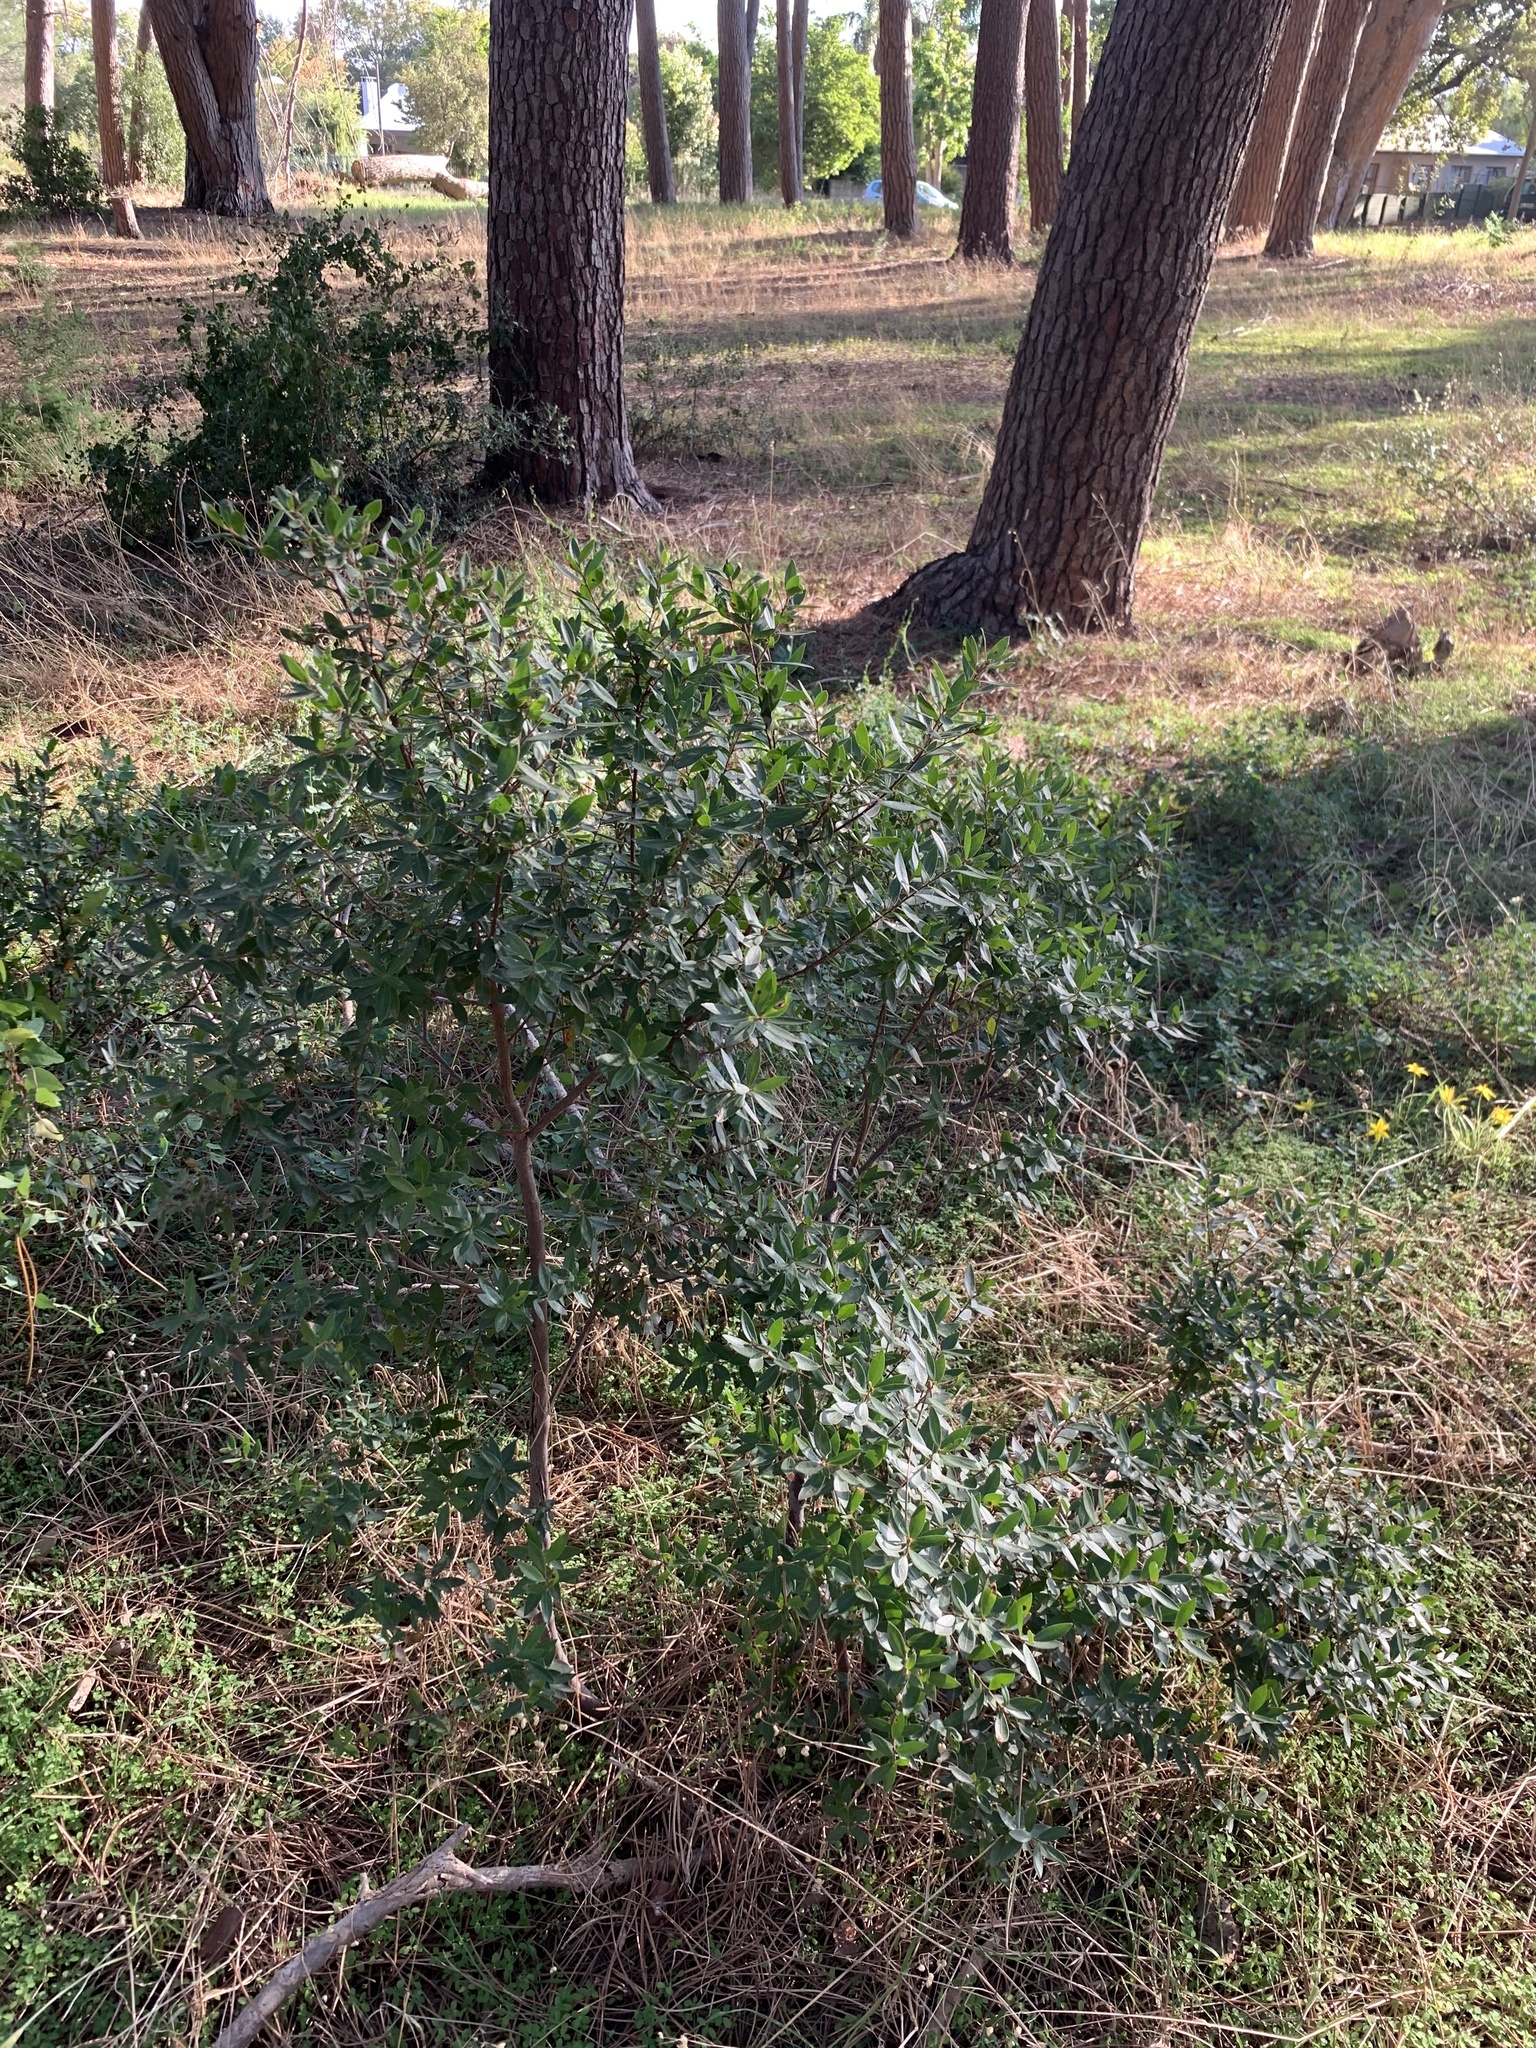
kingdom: Plantae
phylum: Tracheophyta
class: Magnoliopsida
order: Ericales
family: Ebenaceae
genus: Diospyros
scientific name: Diospyros glabra
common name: Fynbos star apple
